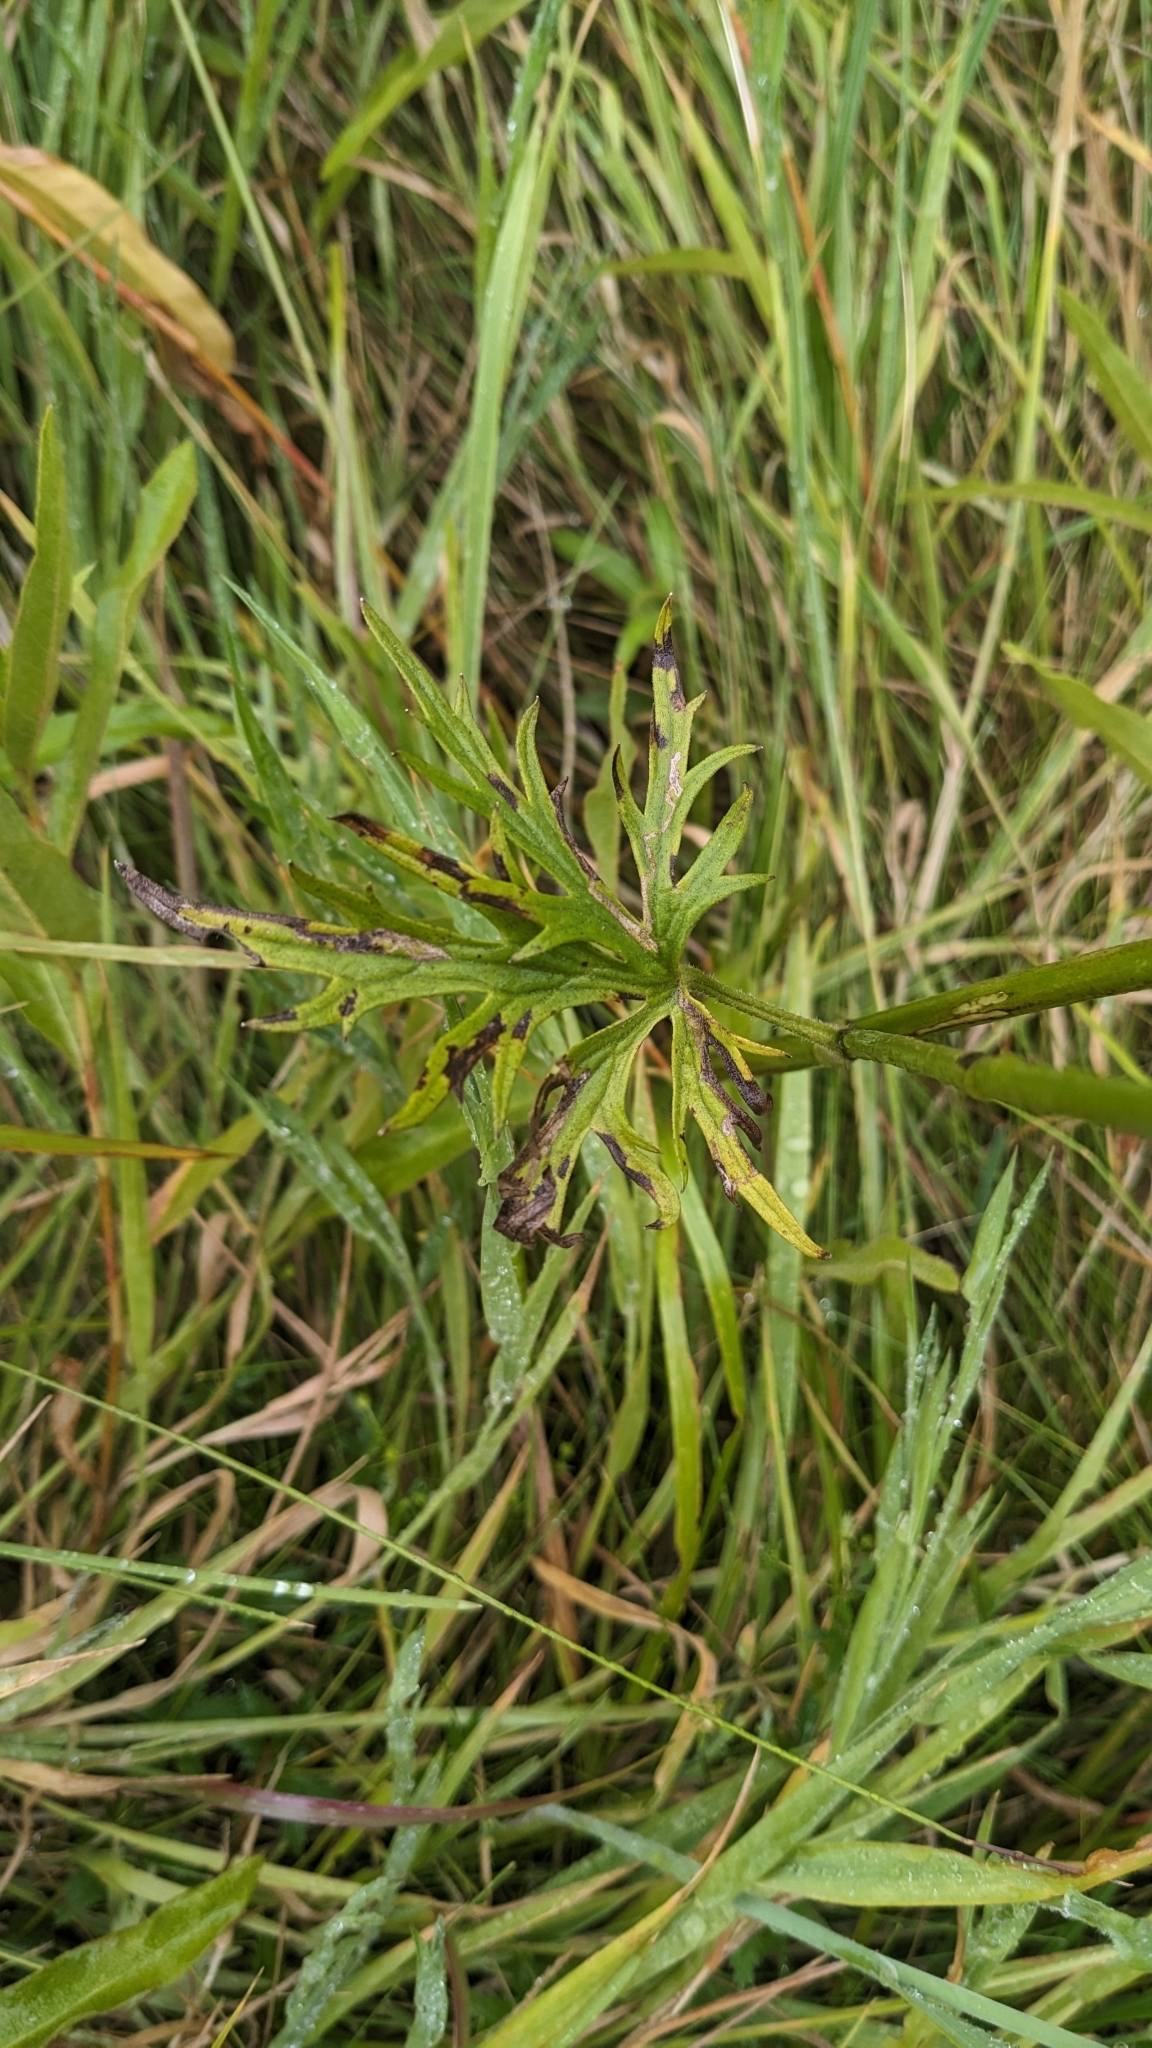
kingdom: Plantae
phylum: Tracheophyta
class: Magnoliopsida
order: Ranunculales
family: Ranunculaceae
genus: Ranunculus
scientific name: Ranunculus acris
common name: Meadow buttercup
